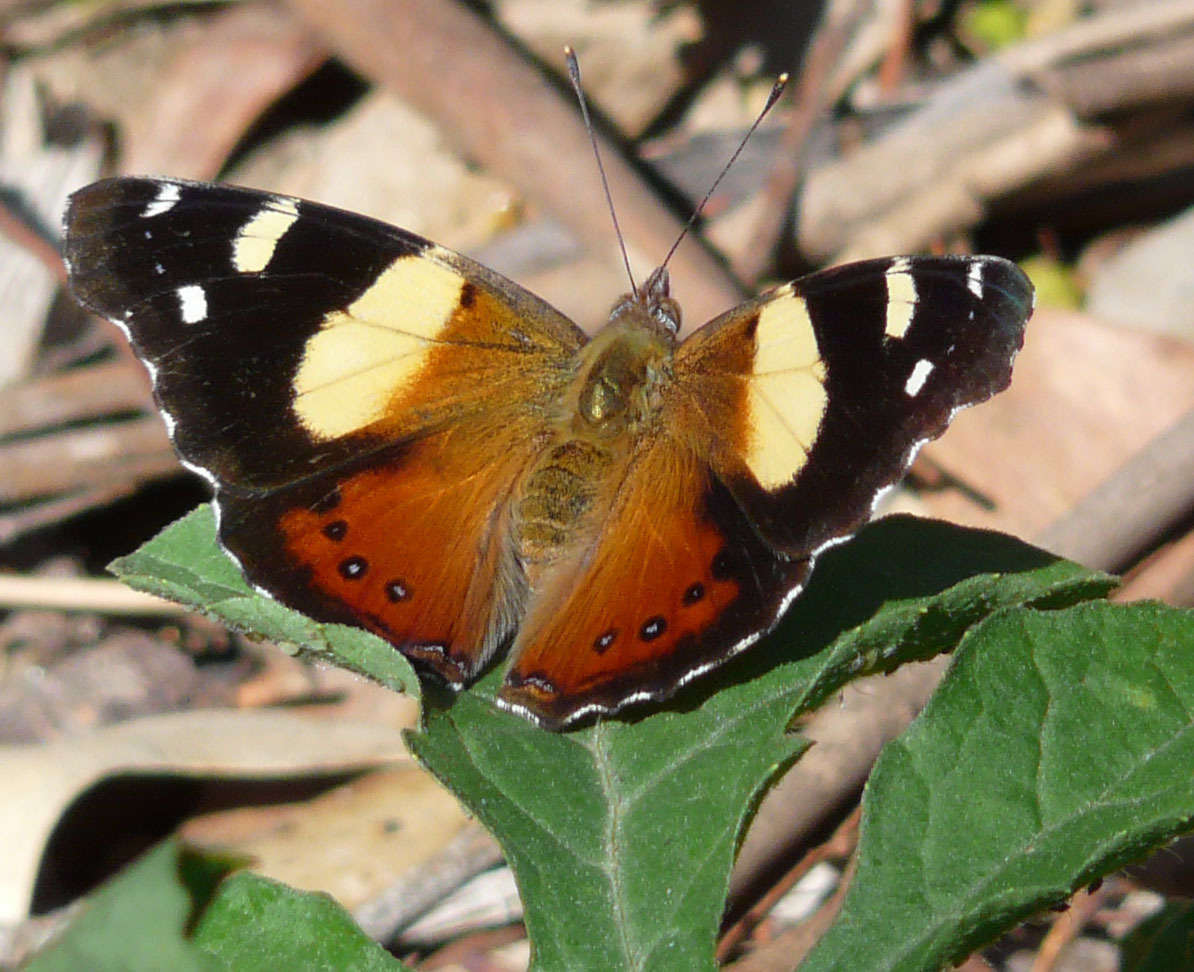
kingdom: Animalia
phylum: Arthropoda
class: Insecta
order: Lepidoptera
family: Nymphalidae
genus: Vanessa
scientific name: Vanessa itea
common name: Yellow admiral
